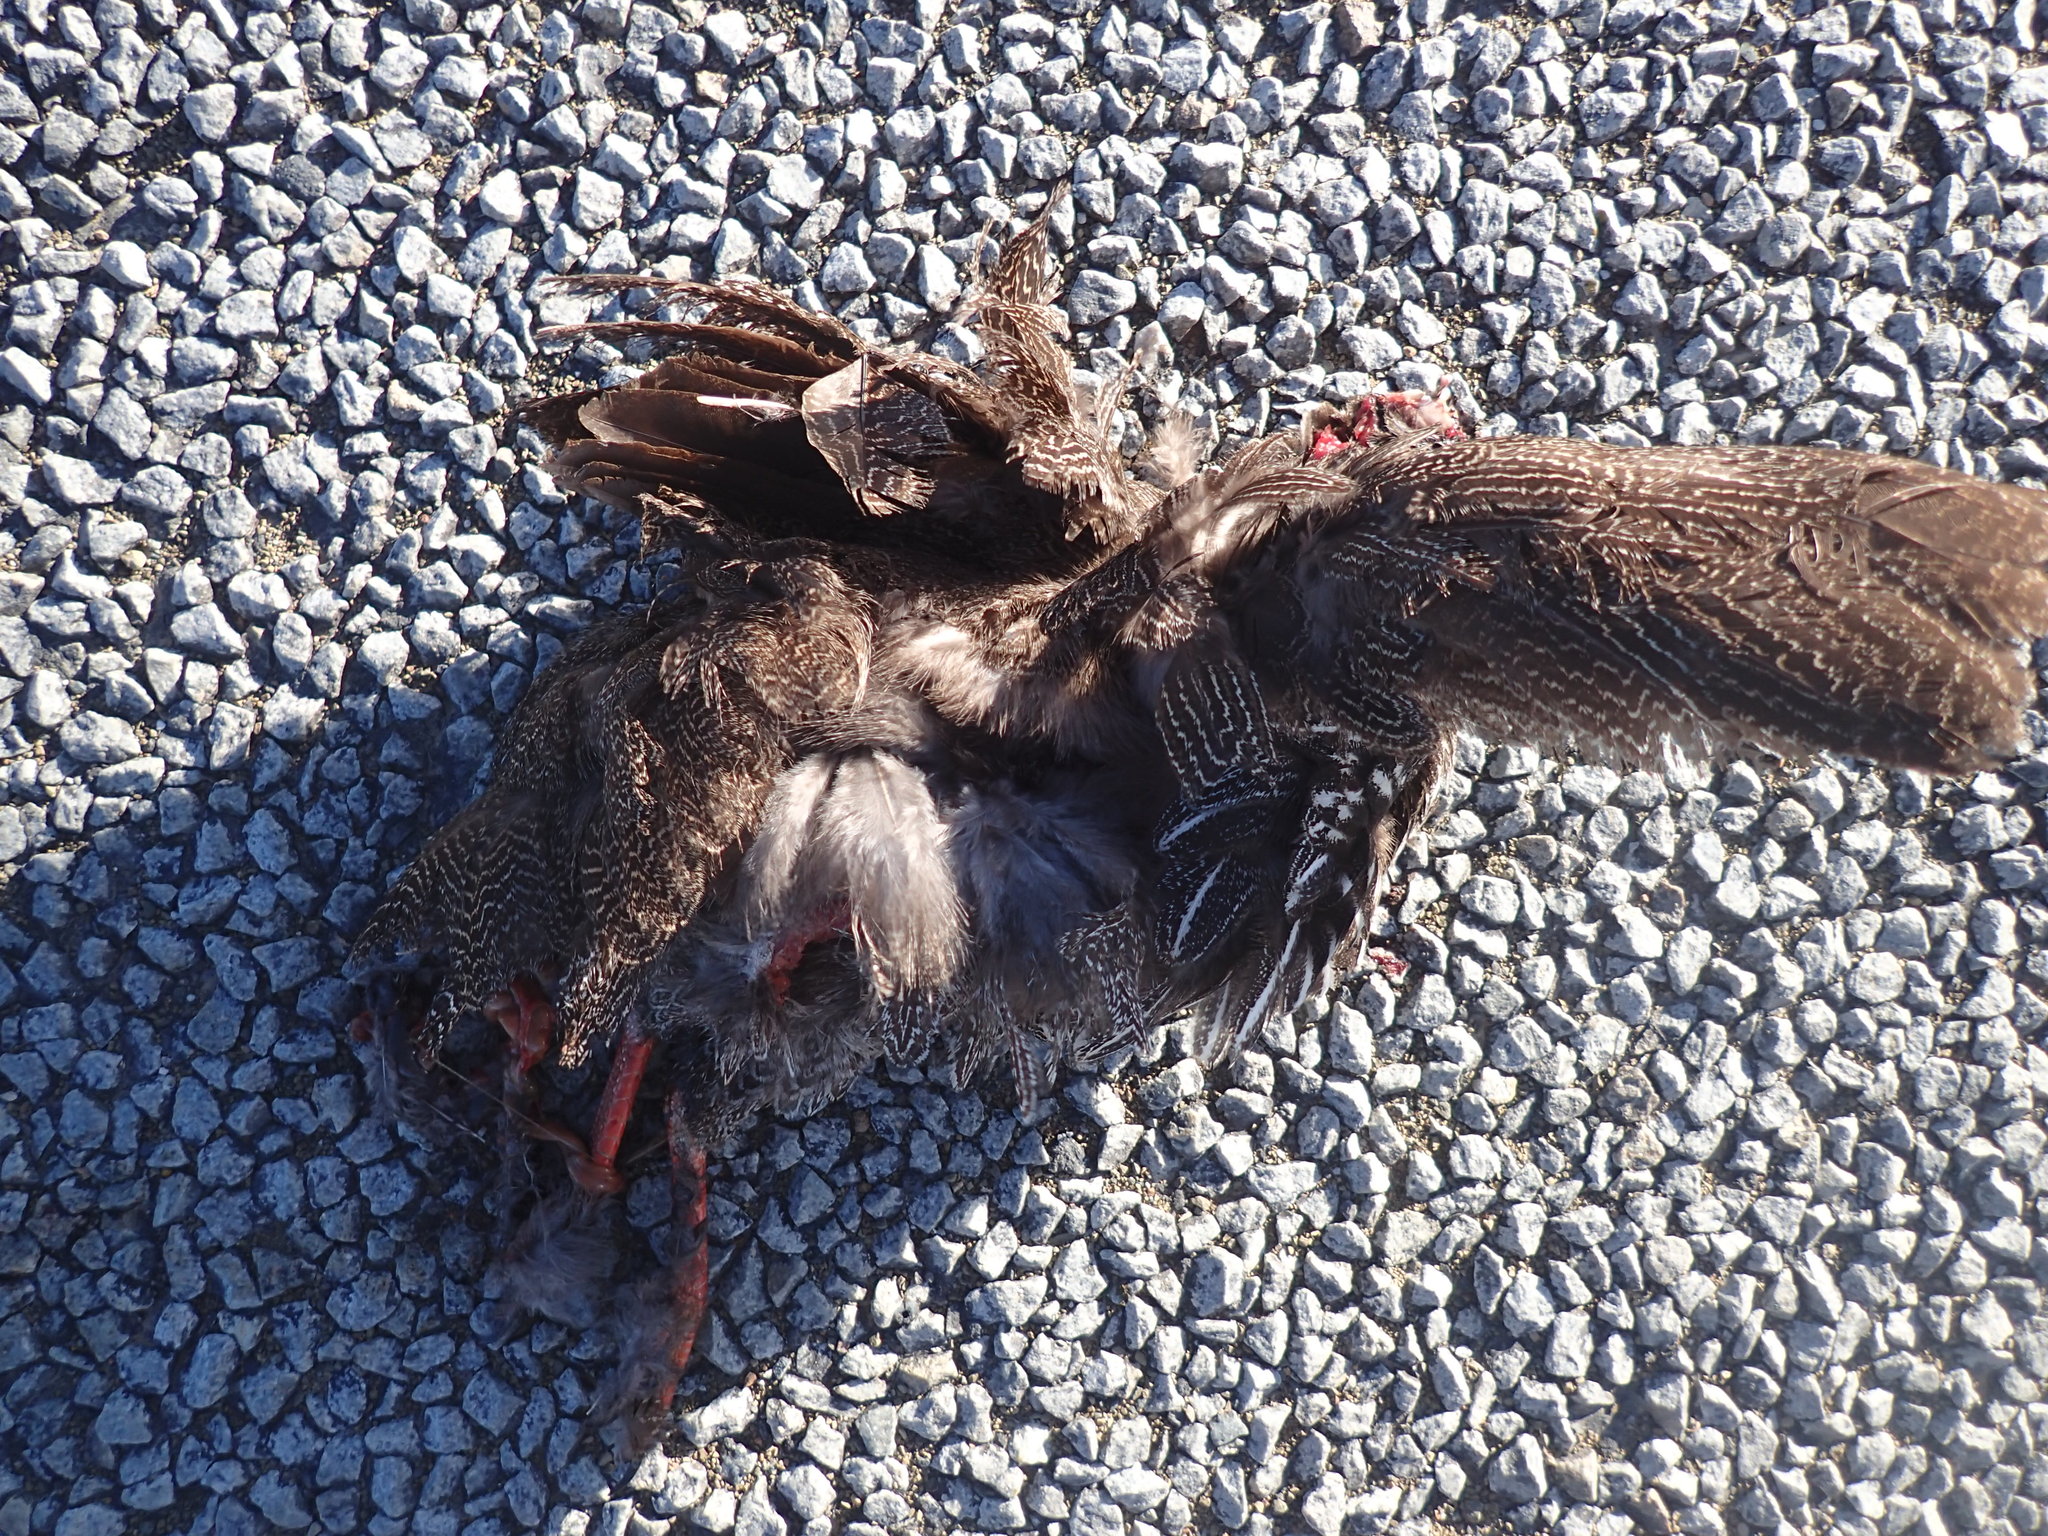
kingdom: Animalia
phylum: Chordata
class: Aves
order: Galliformes
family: Phasianidae
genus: Pternistis
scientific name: Pternistis capensis
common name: Cape spurfowl
